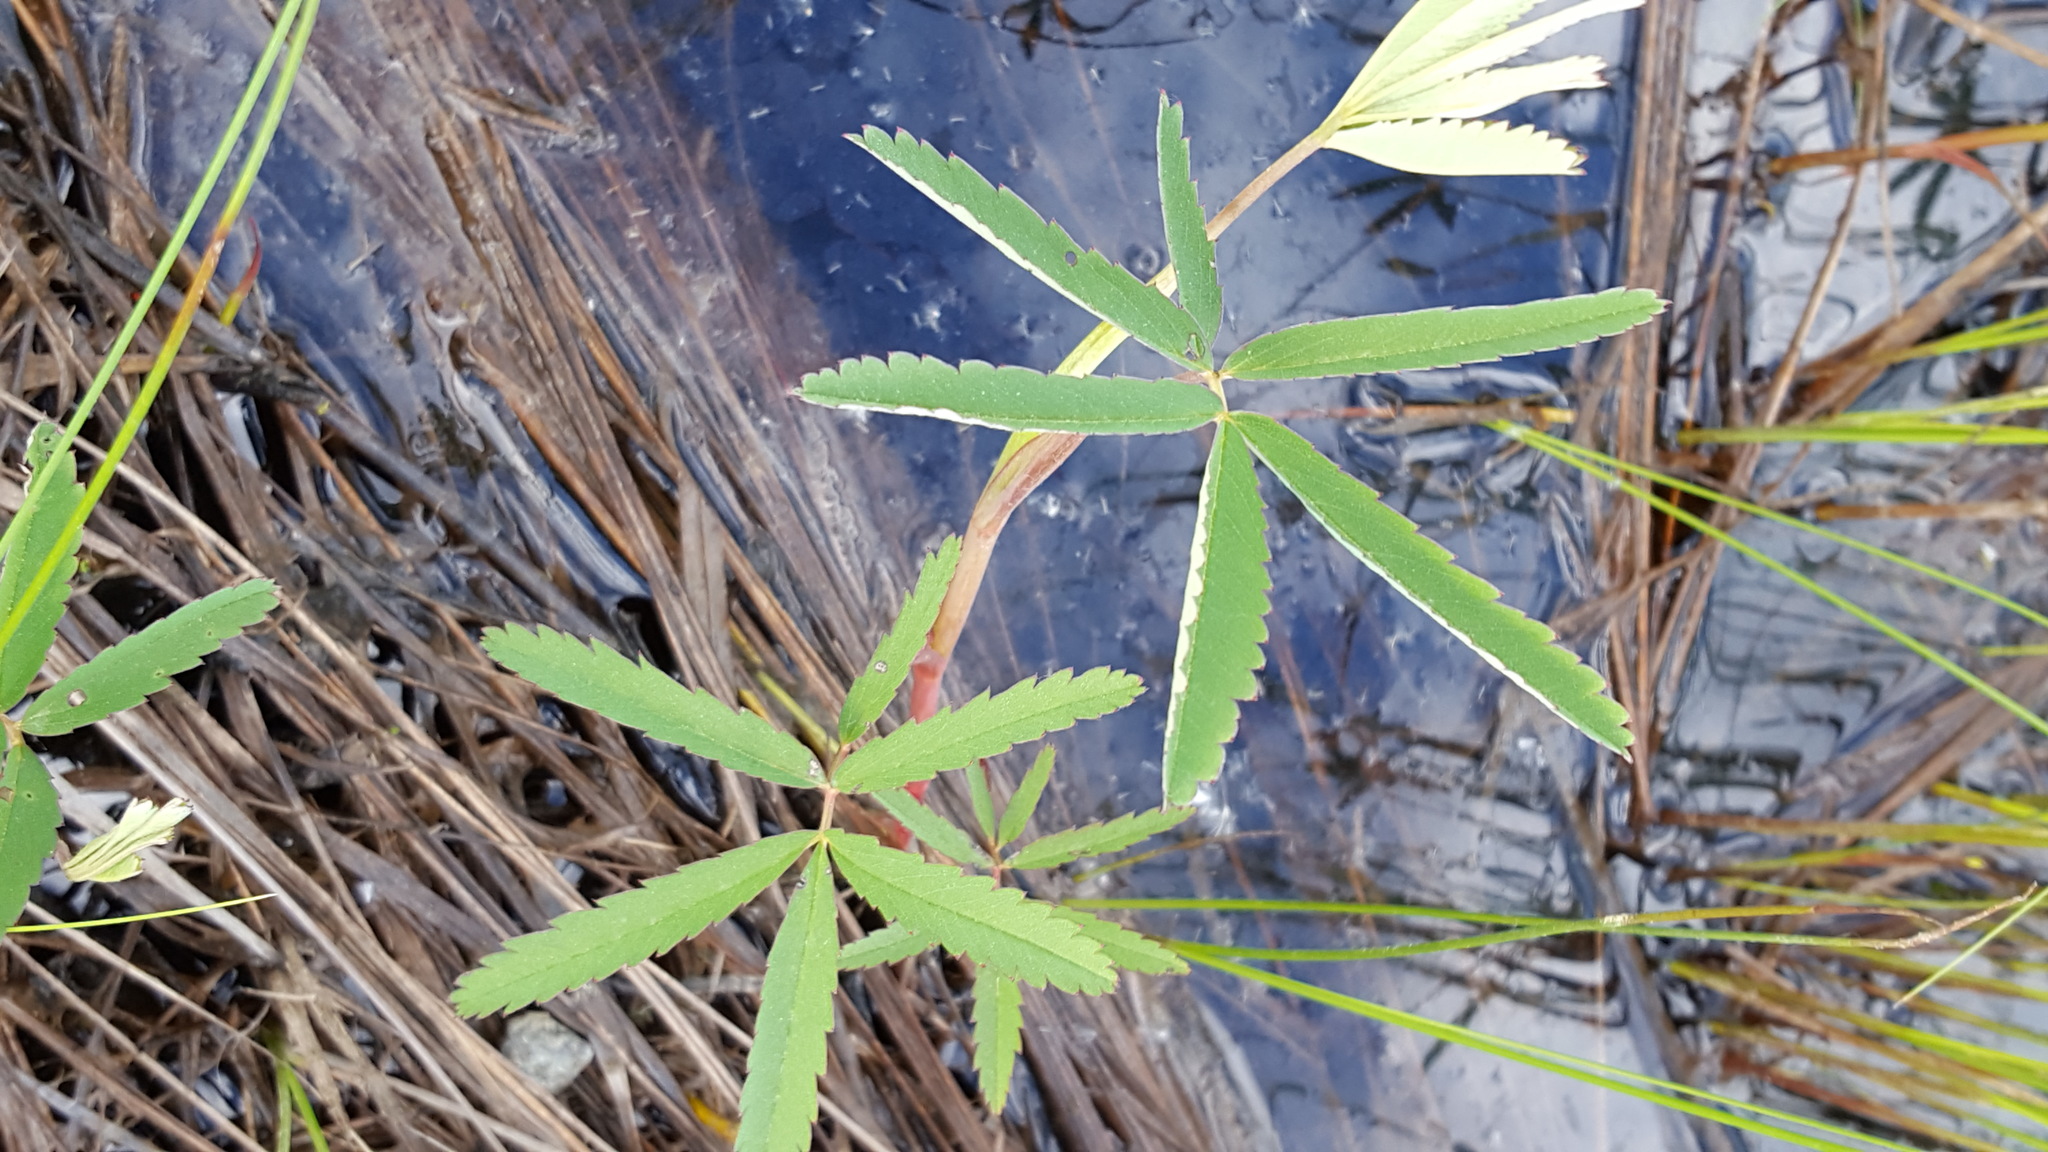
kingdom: Plantae
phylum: Tracheophyta
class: Magnoliopsida
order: Rosales
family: Rosaceae
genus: Comarum
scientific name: Comarum palustre
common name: Marsh cinquefoil
